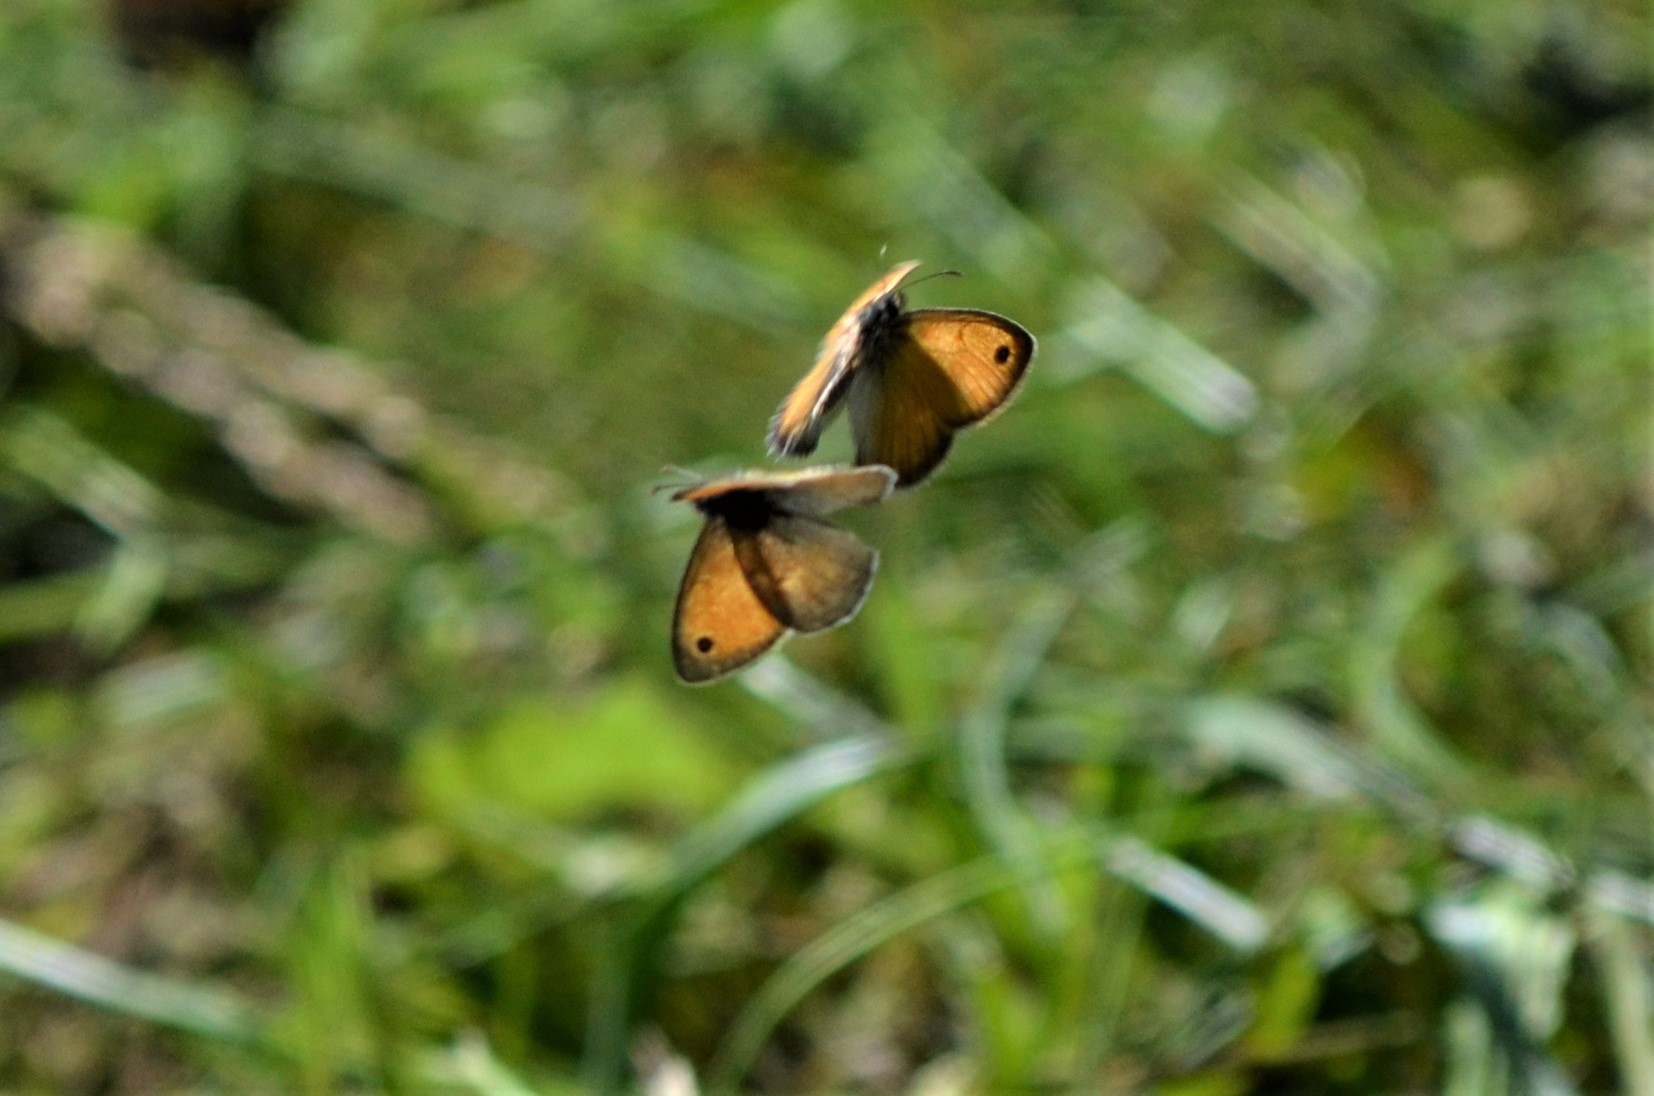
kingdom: Animalia
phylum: Arthropoda
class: Insecta
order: Lepidoptera
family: Nymphalidae
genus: Coenonympha
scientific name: Coenonympha pamphilus
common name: Small heath
